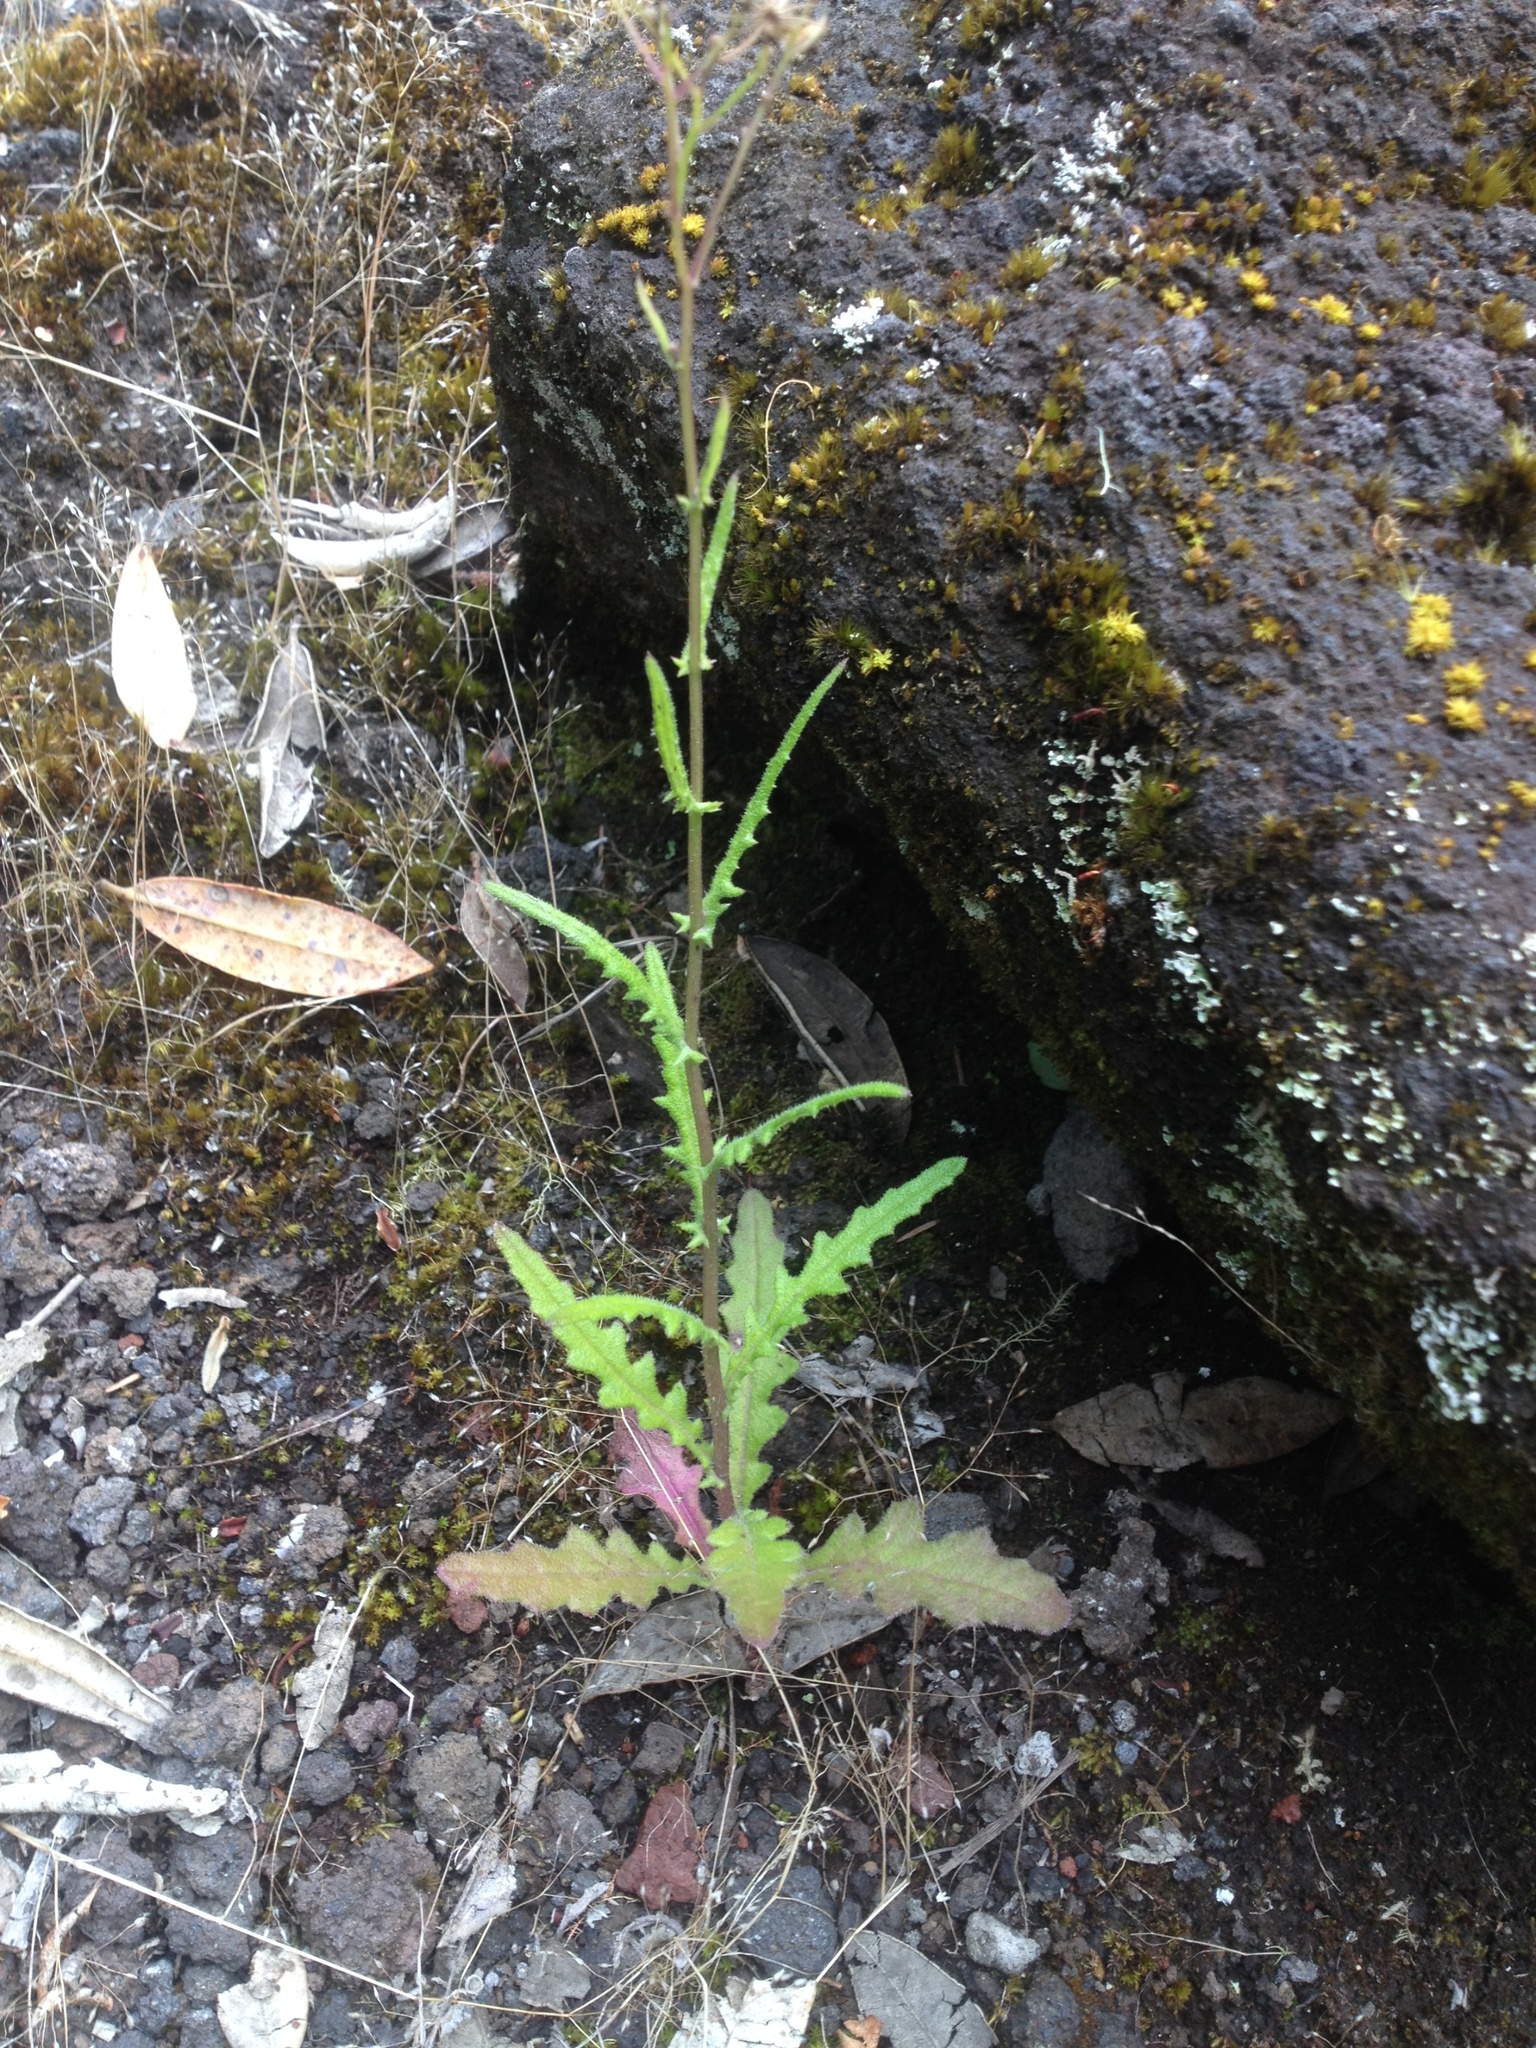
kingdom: Plantae
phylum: Tracheophyta
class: Magnoliopsida
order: Asterales
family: Asteraceae
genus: Senecio
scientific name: Senecio hispidulus
